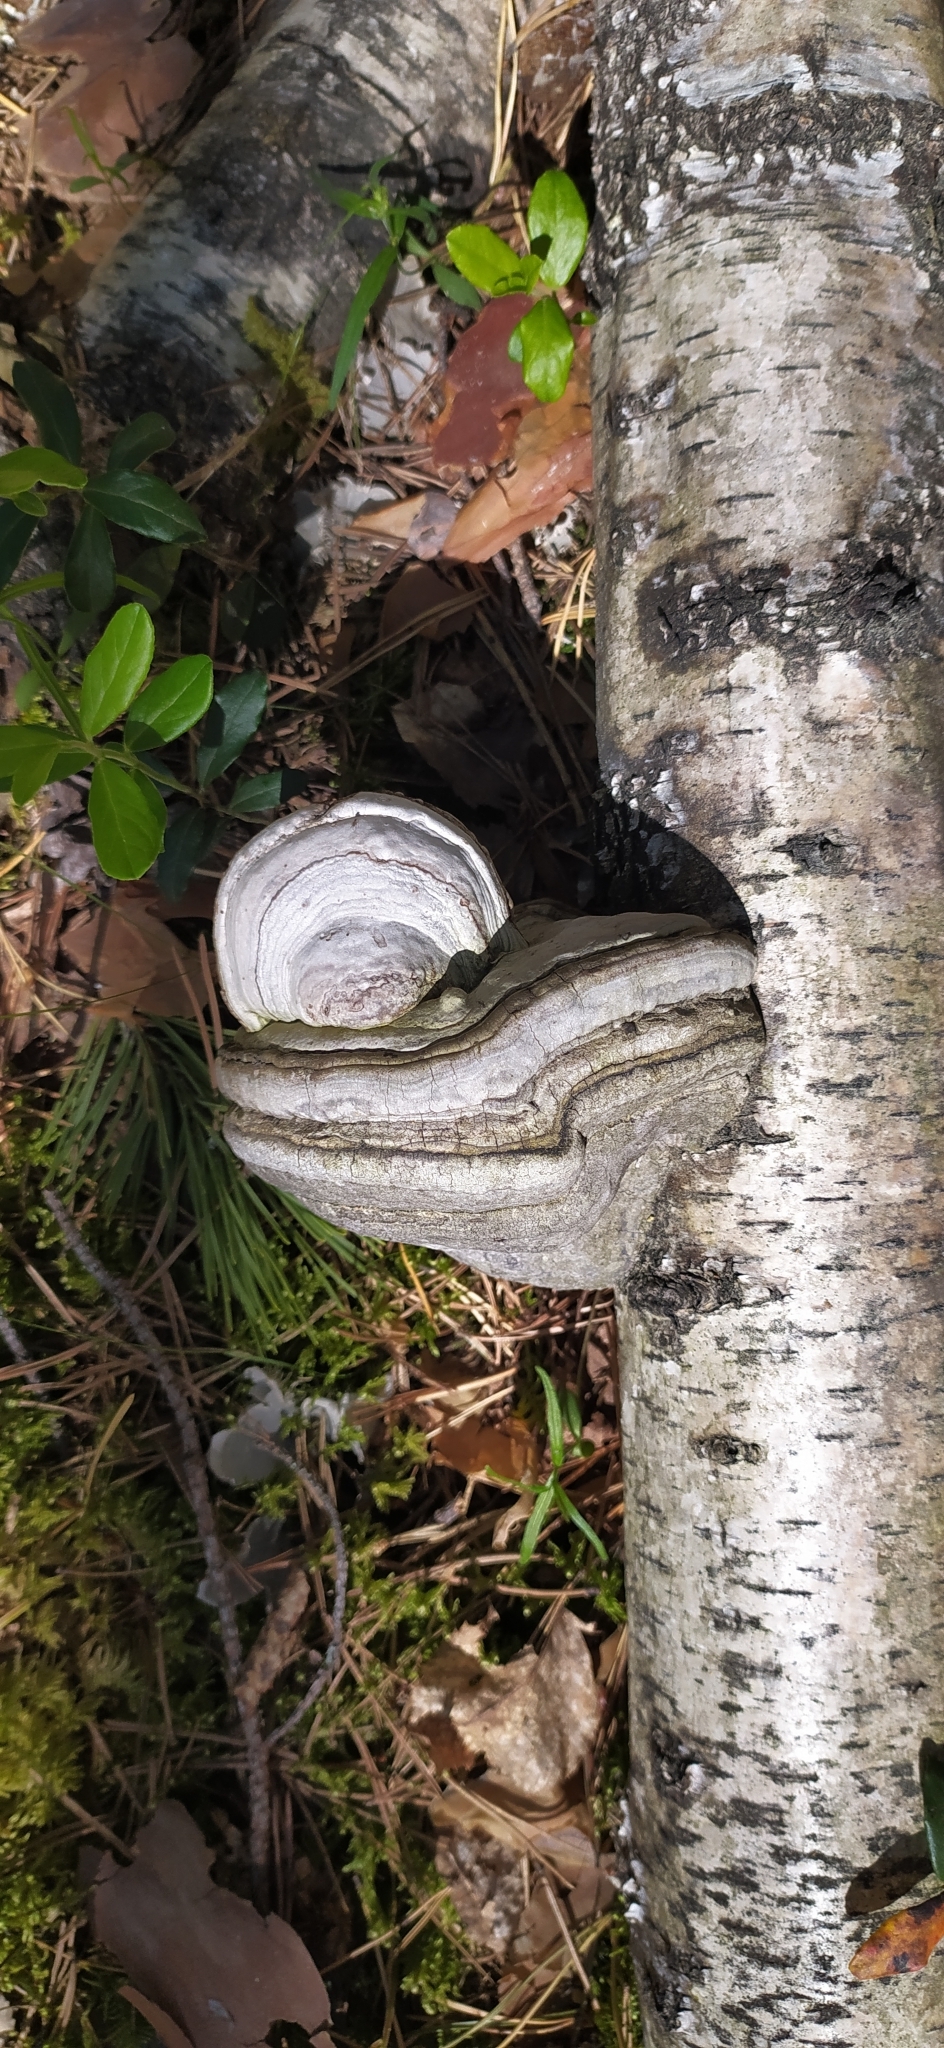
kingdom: Fungi
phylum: Basidiomycota
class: Agaricomycetes
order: Polyporales
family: Polyporaceae
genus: Fomes
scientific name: Fomes fomentarius
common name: Hoof fungus
